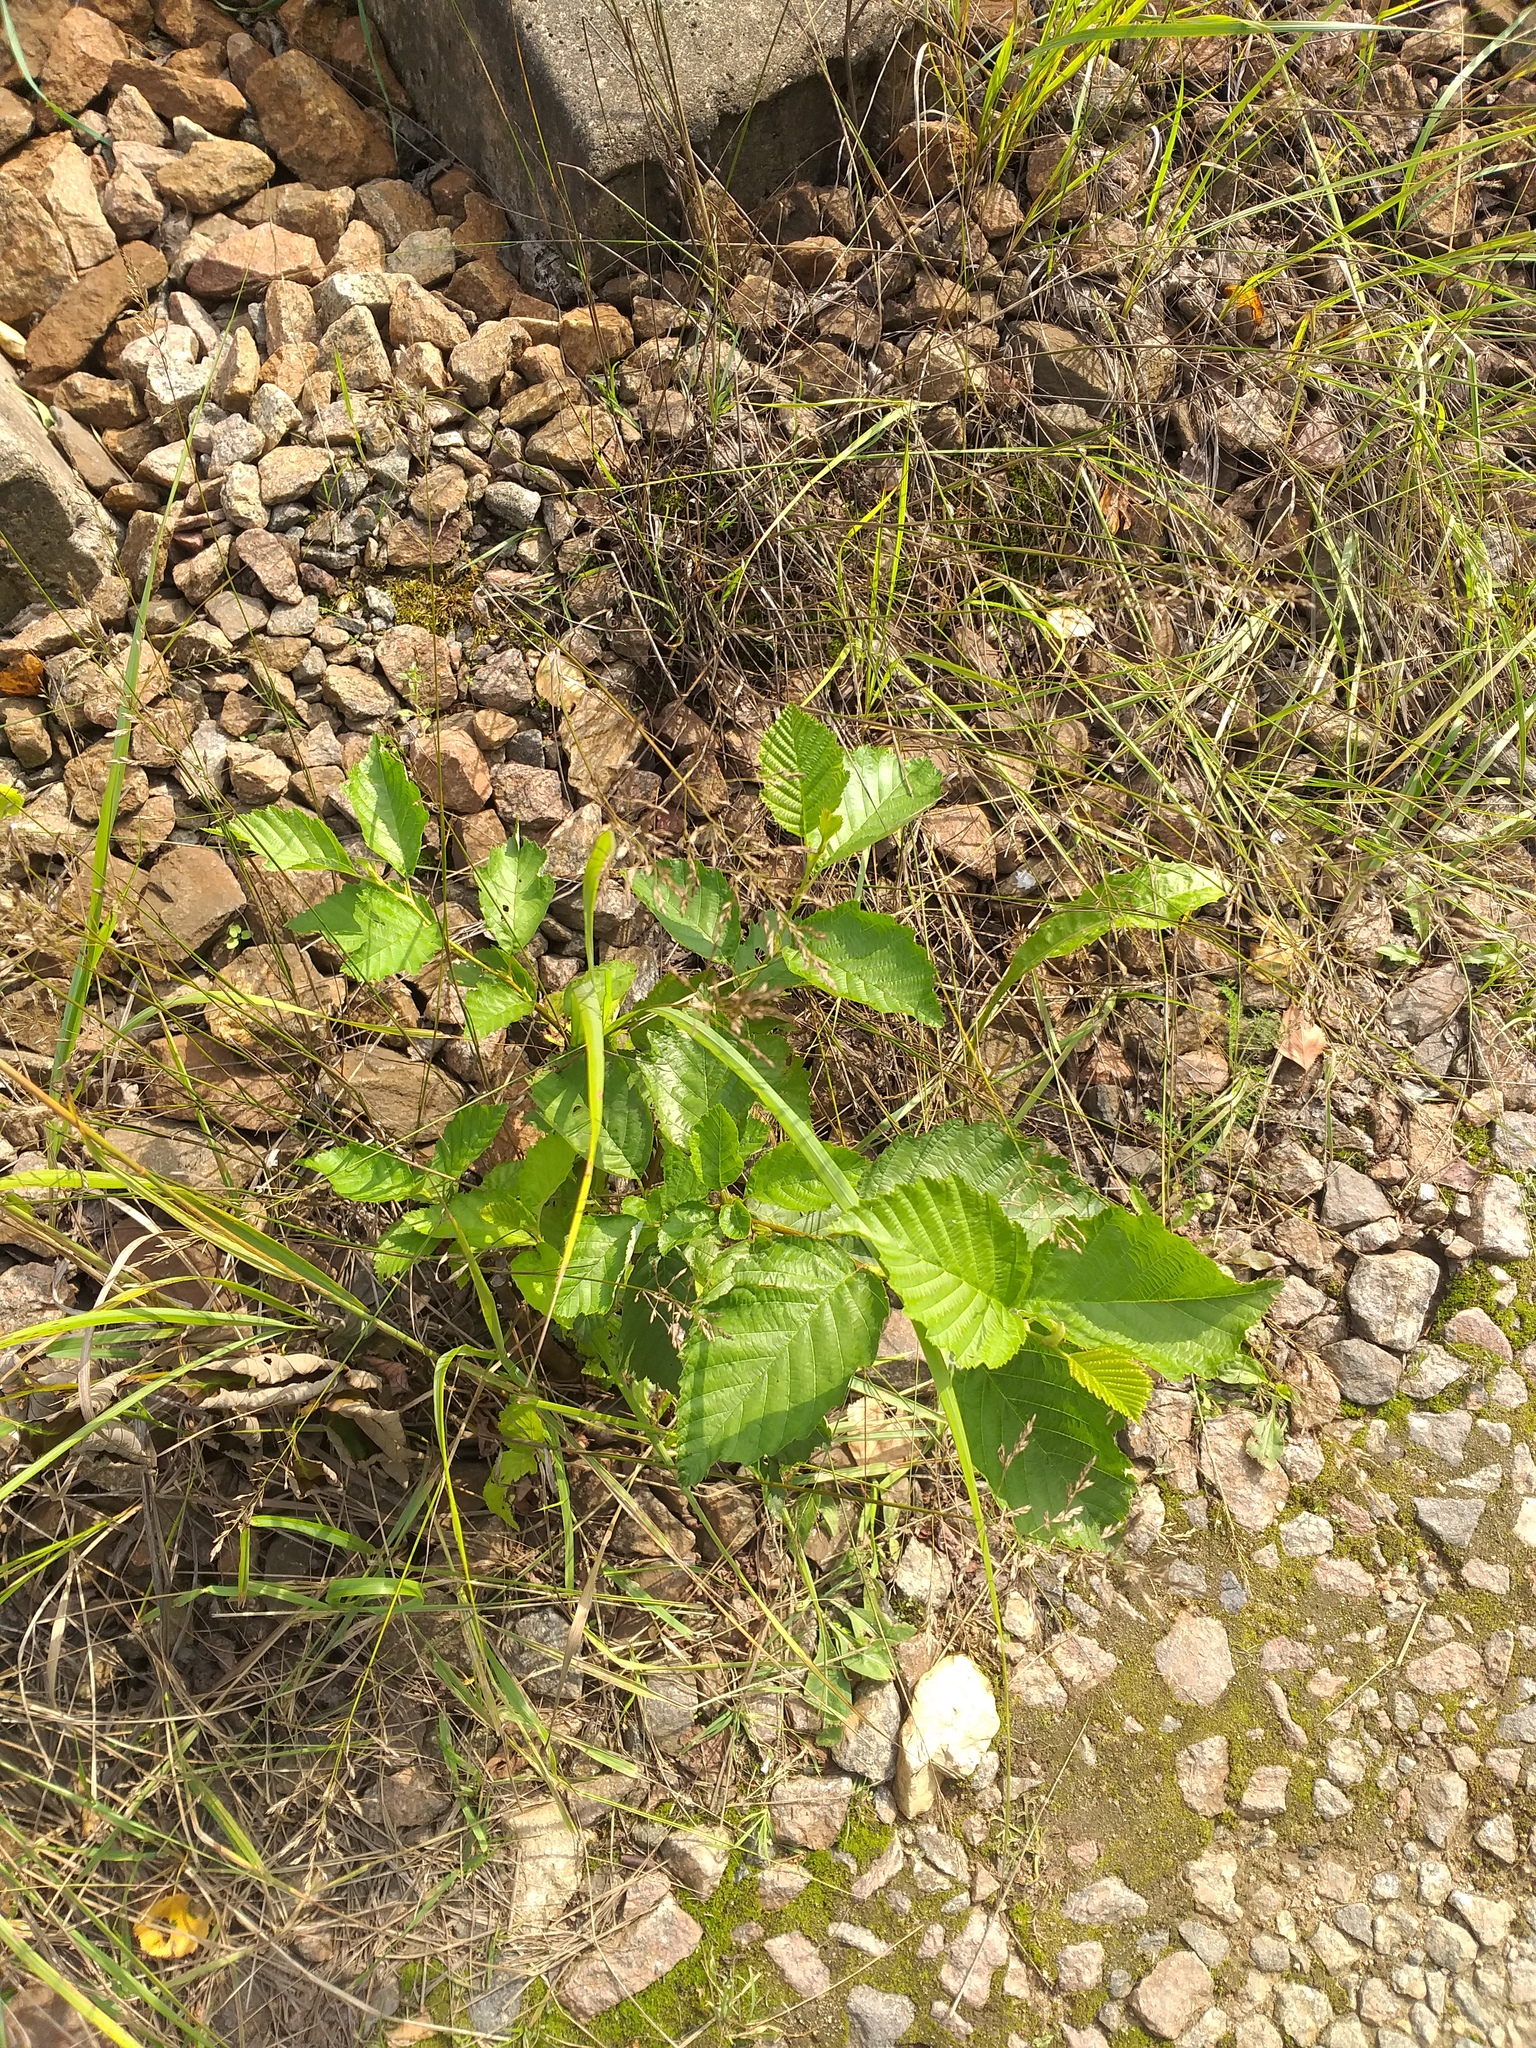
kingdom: Plantae
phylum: Tracheophyta
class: Magnoliopsida
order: Fagales
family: Betulaceae
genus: Alnus
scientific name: Alnus incana
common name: Grey alder
